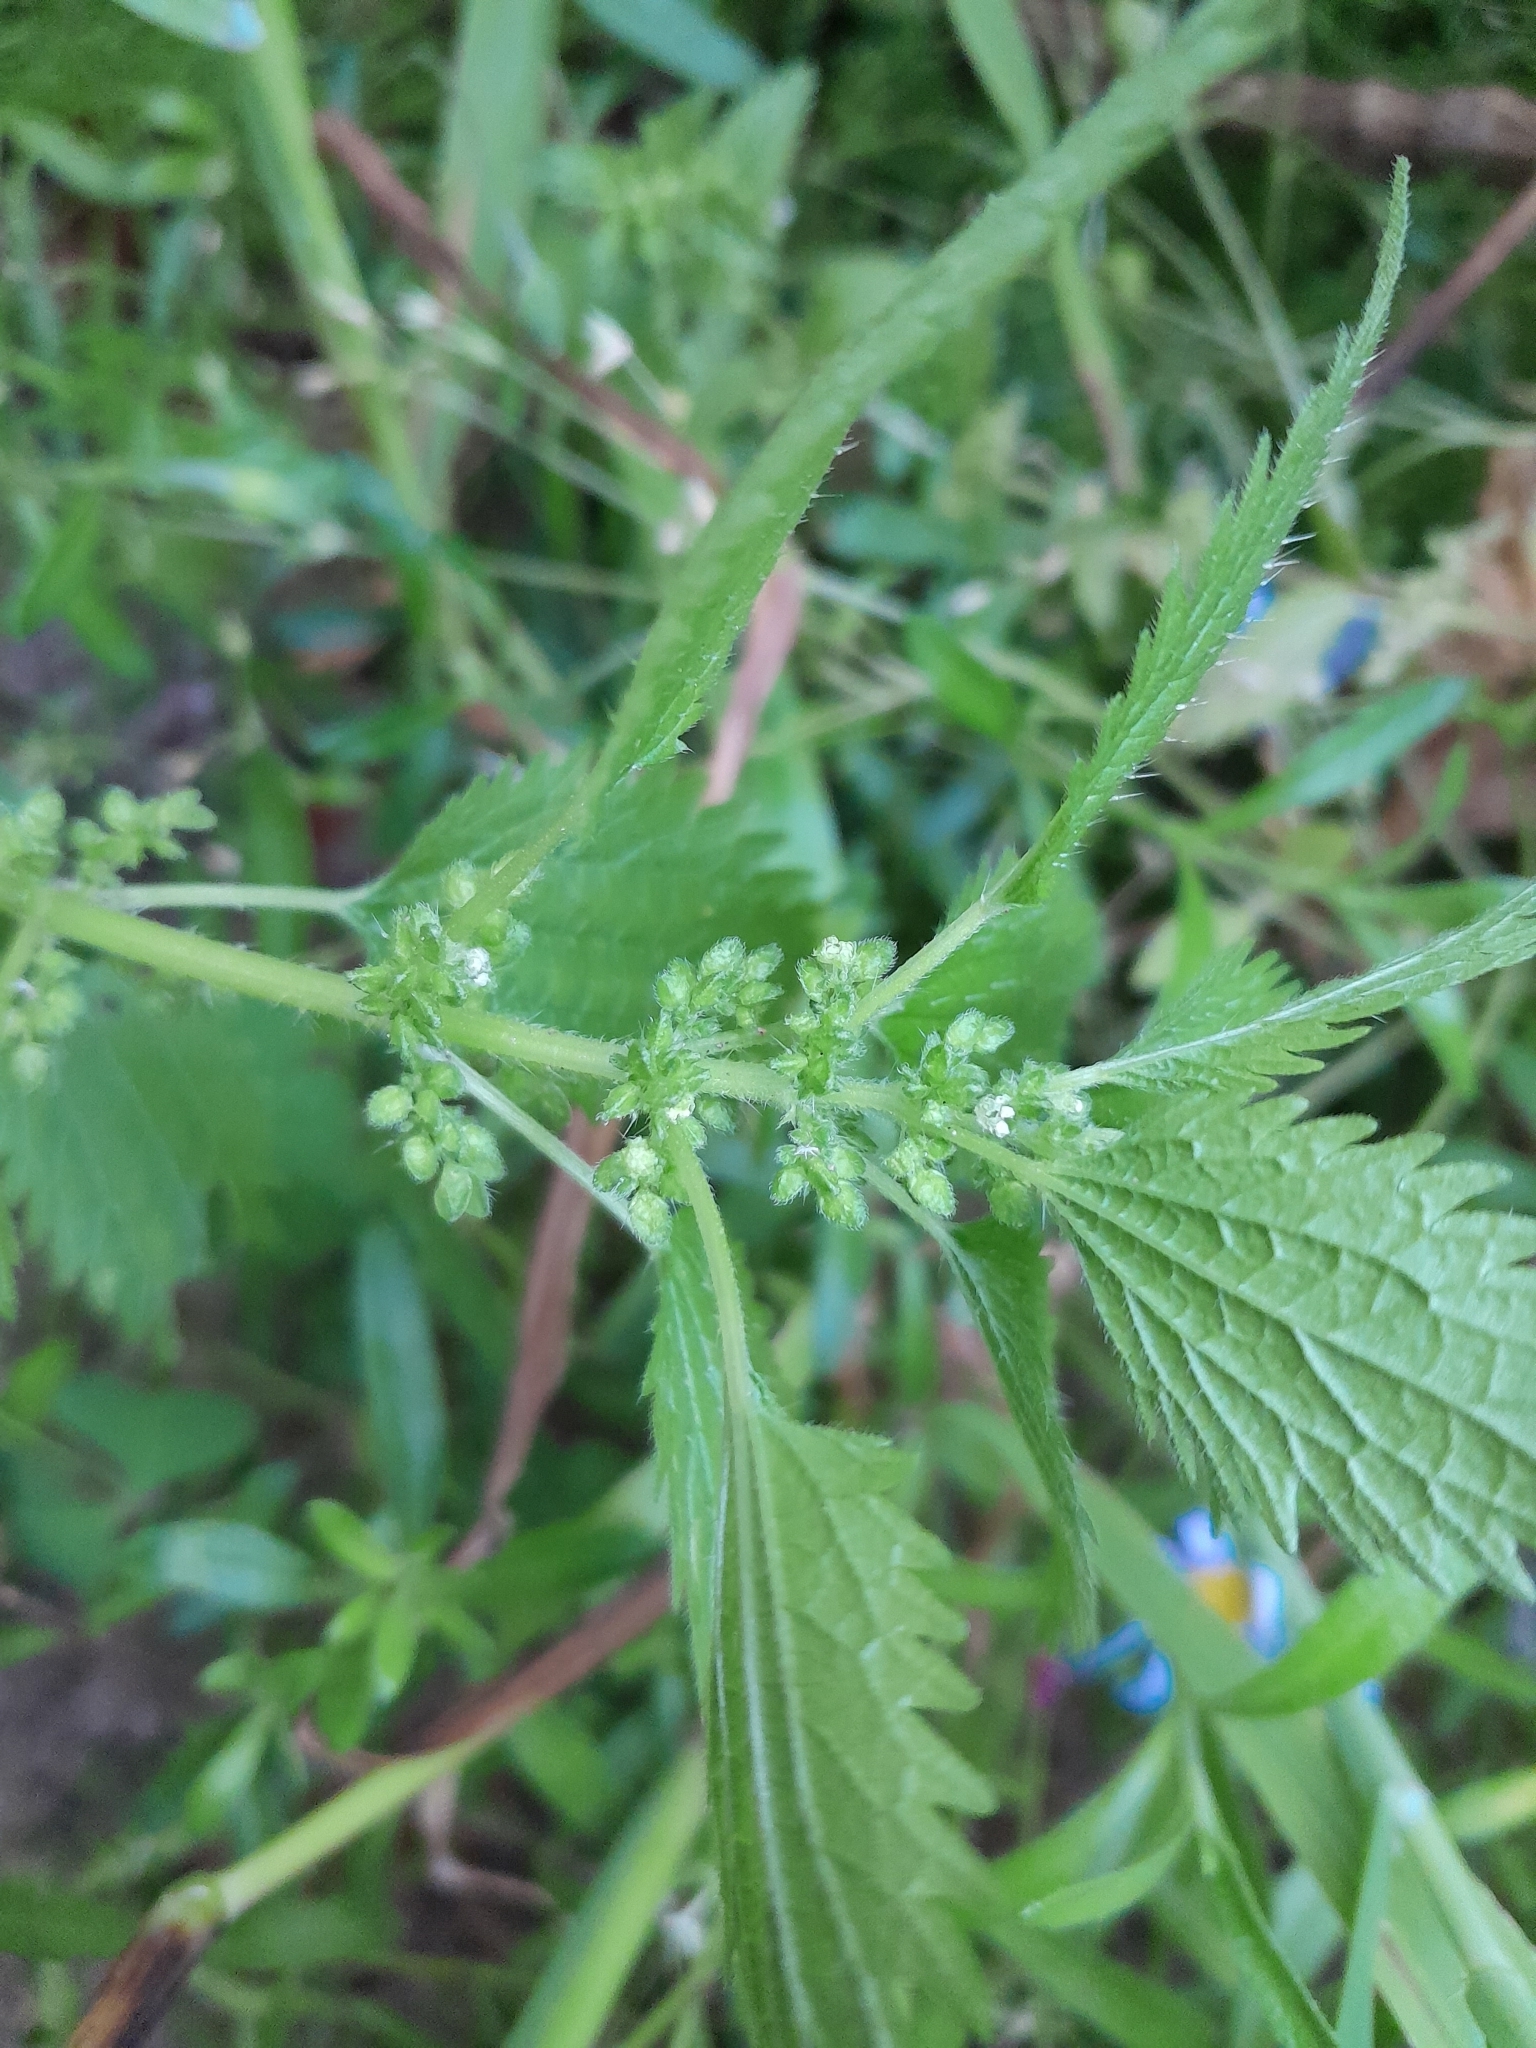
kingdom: Plantae
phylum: Tracheophyta
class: Magnoliopsida
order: Rosales
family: Urticaceae
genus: Urtica
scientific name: Urtica urens
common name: Dwarf nettle
